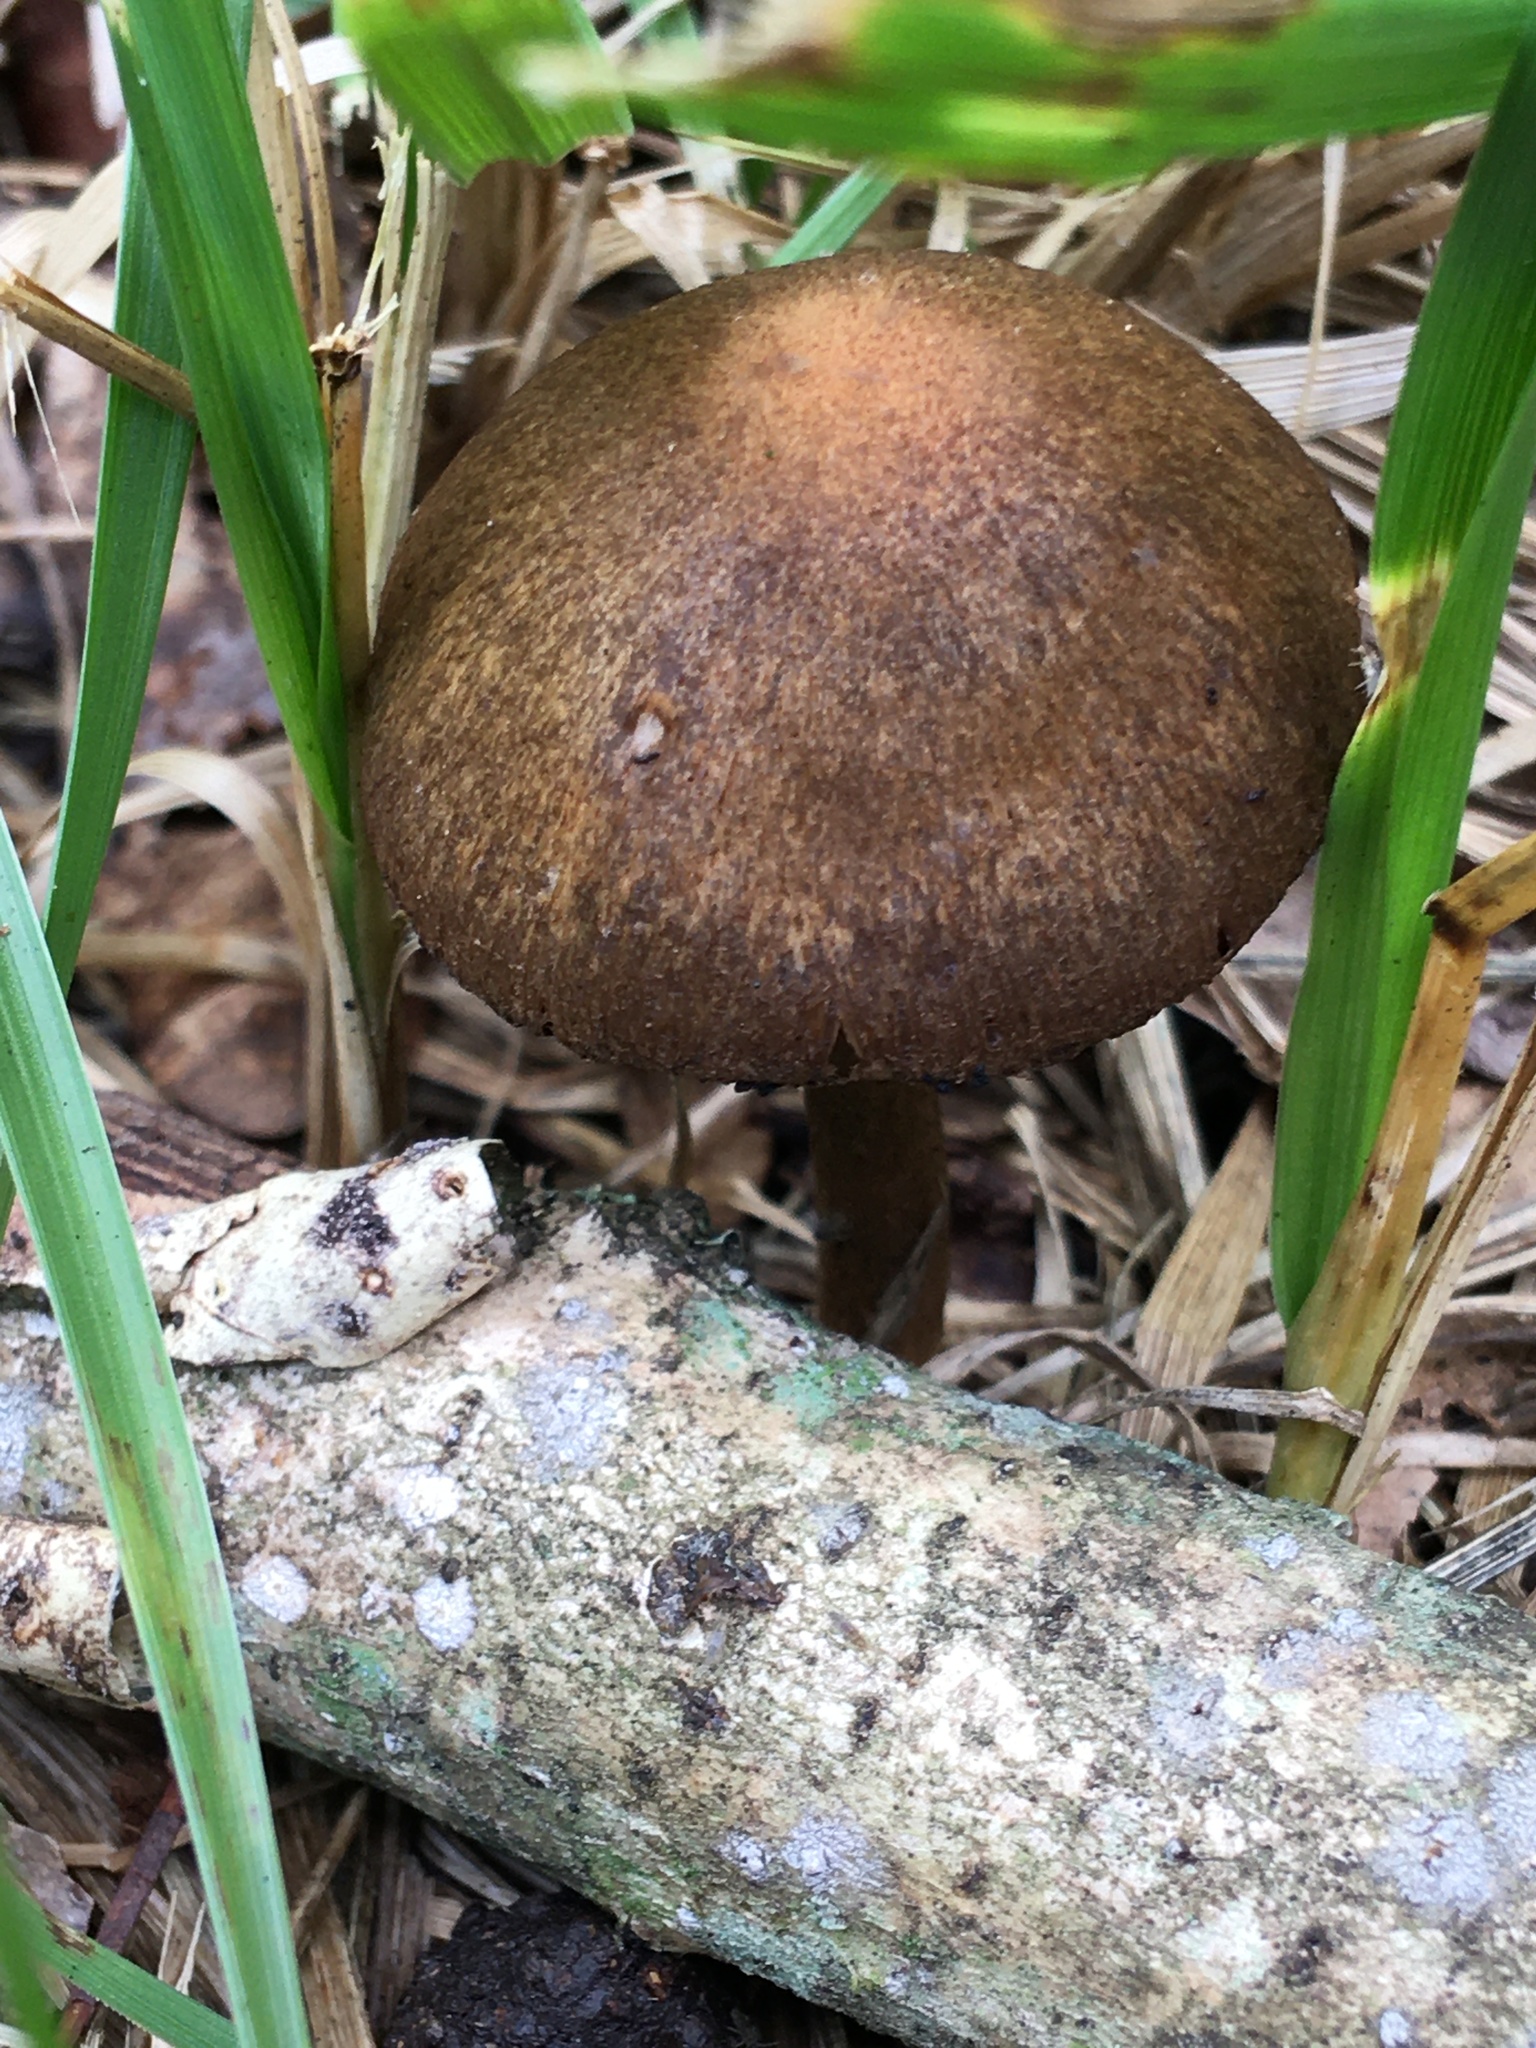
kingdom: Fungi
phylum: Basidiomycota
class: Agaricomycetes
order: Agaricales
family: Psathyrellaceae
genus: Lacrymaria
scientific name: Lacrymaria lacrymabunda
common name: Weeping widow
